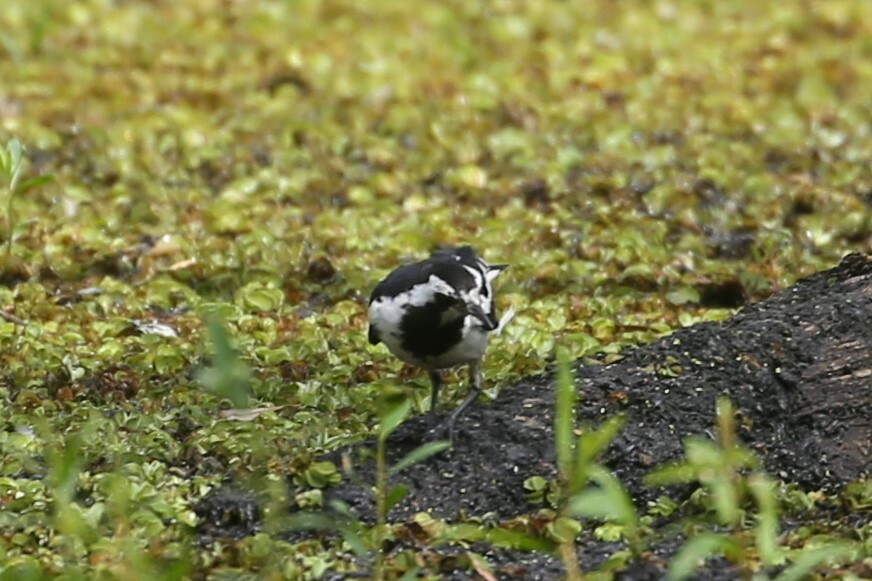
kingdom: Animalia
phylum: Chordata
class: Aves
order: Passeriformes
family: Monarchidae
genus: Grallina
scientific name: Grallina cyanoleuca
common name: Magpie-lark
